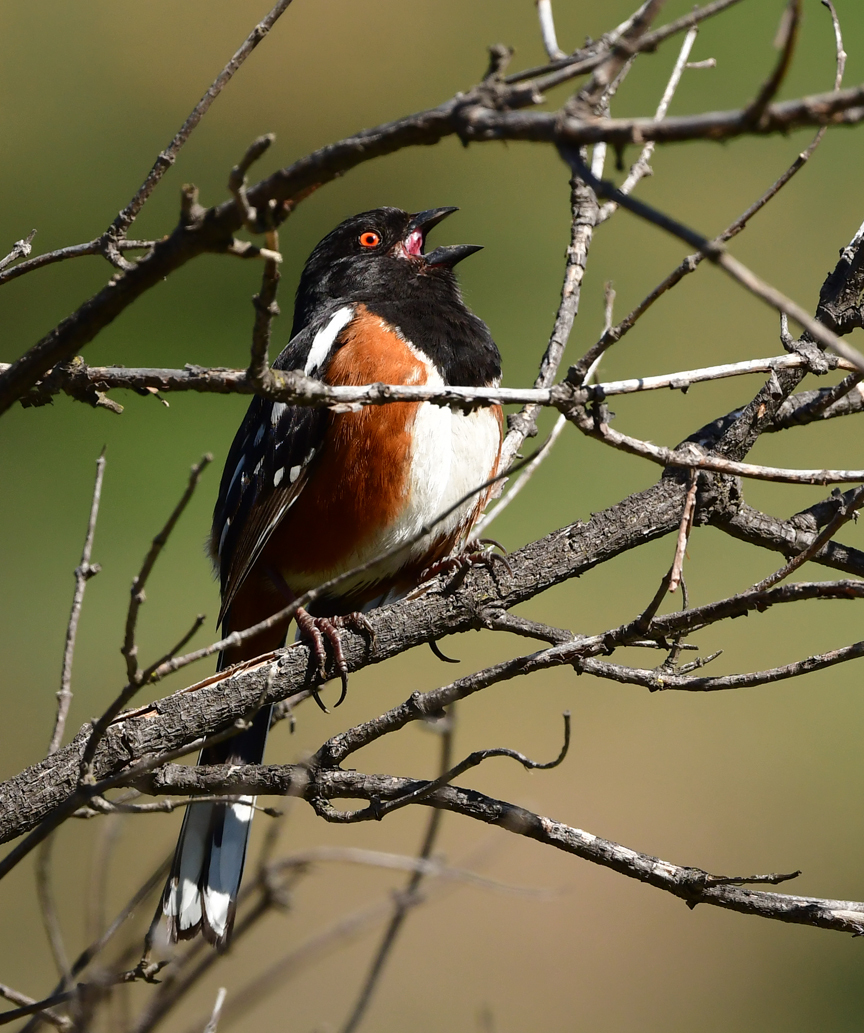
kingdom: Animalia
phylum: Chordata
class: Aves
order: Passeriformes
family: Passerellidae
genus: Pipilo
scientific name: Pipilo maculatus
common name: Spotted towhee
